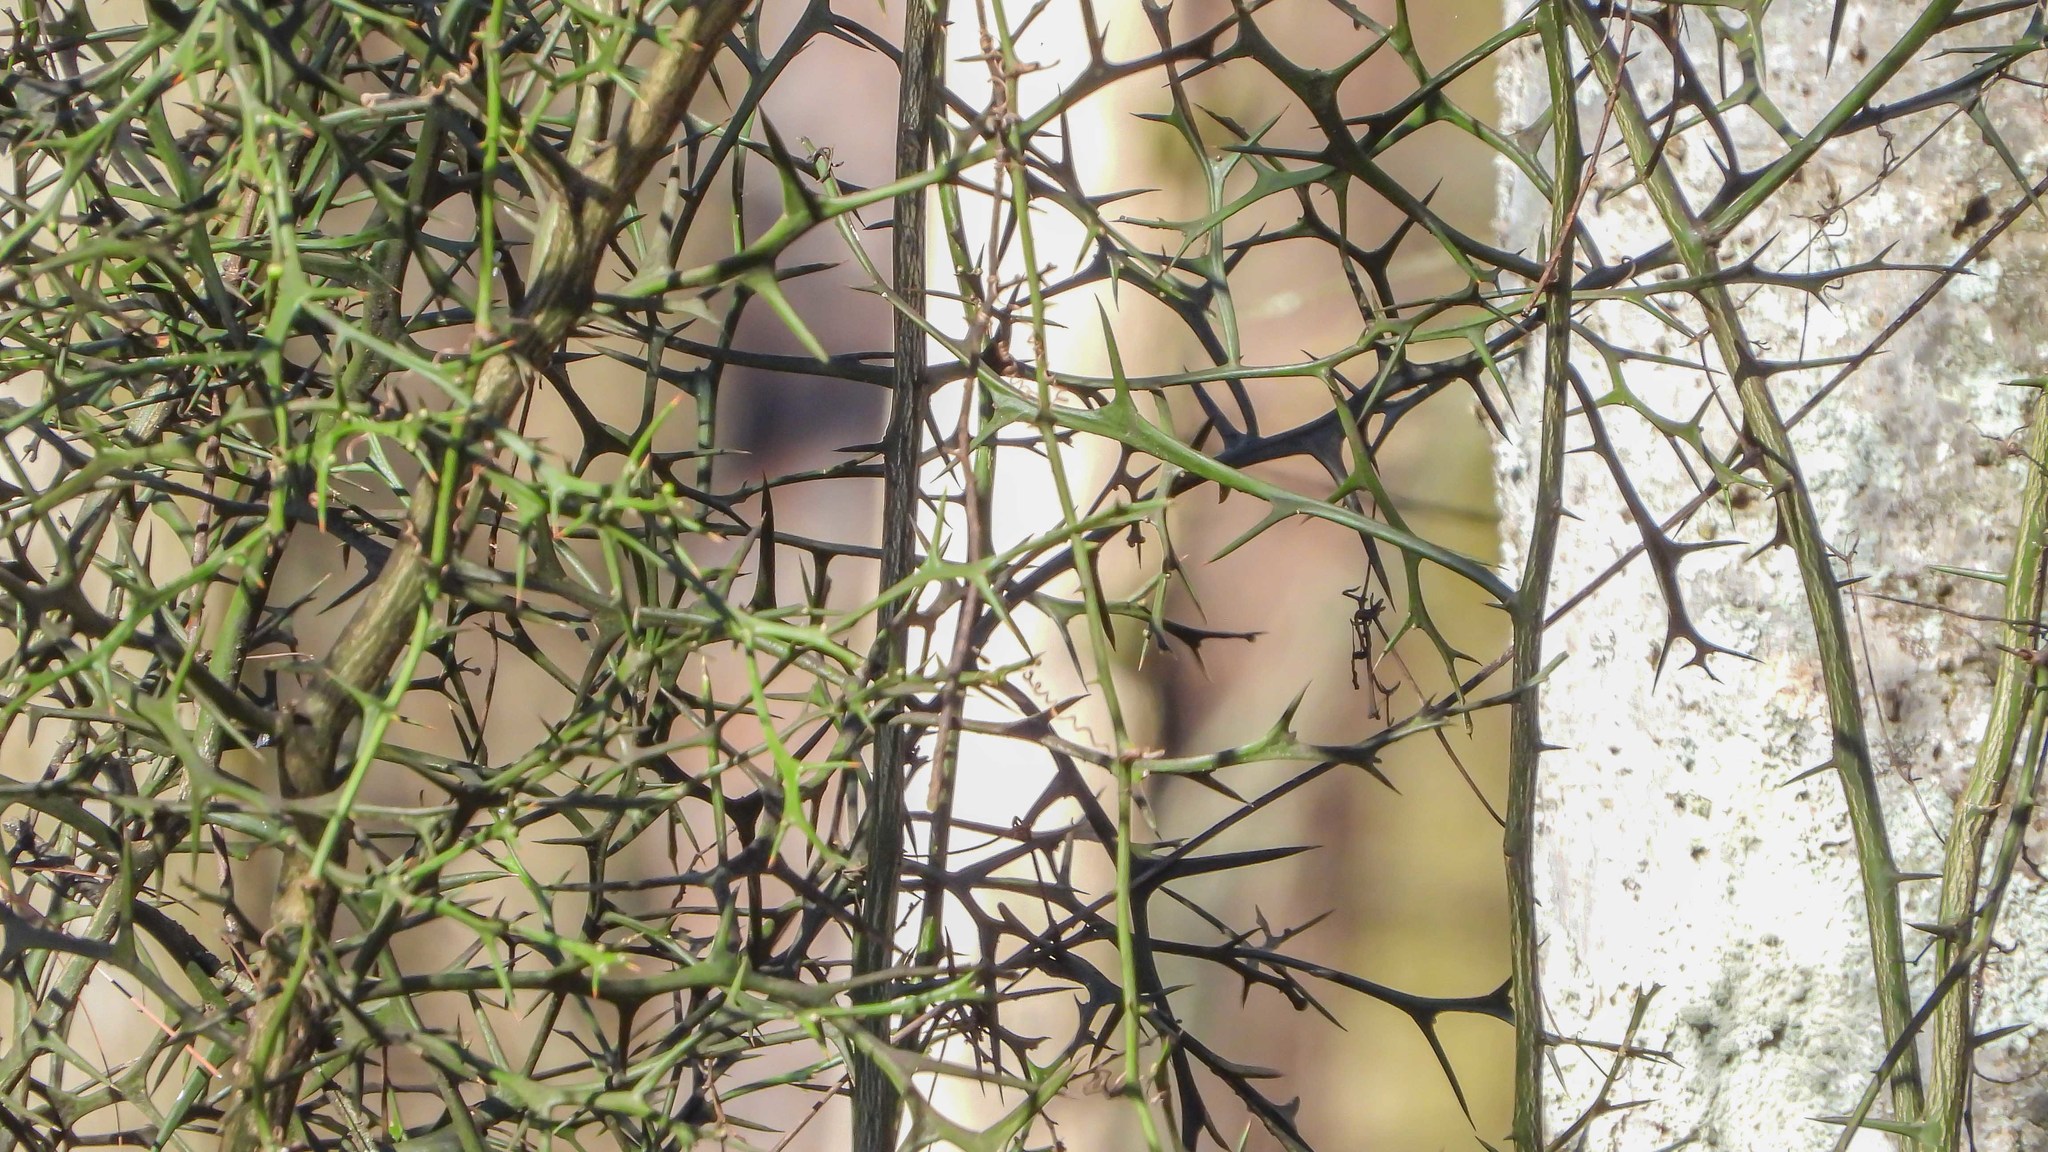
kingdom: Plantae
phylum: Tracheophyta
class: Magnoliopsida
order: Sapindales
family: Rutaceae
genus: Citrus
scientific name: Citrus trifoliata
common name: Japanese bitter-orange
